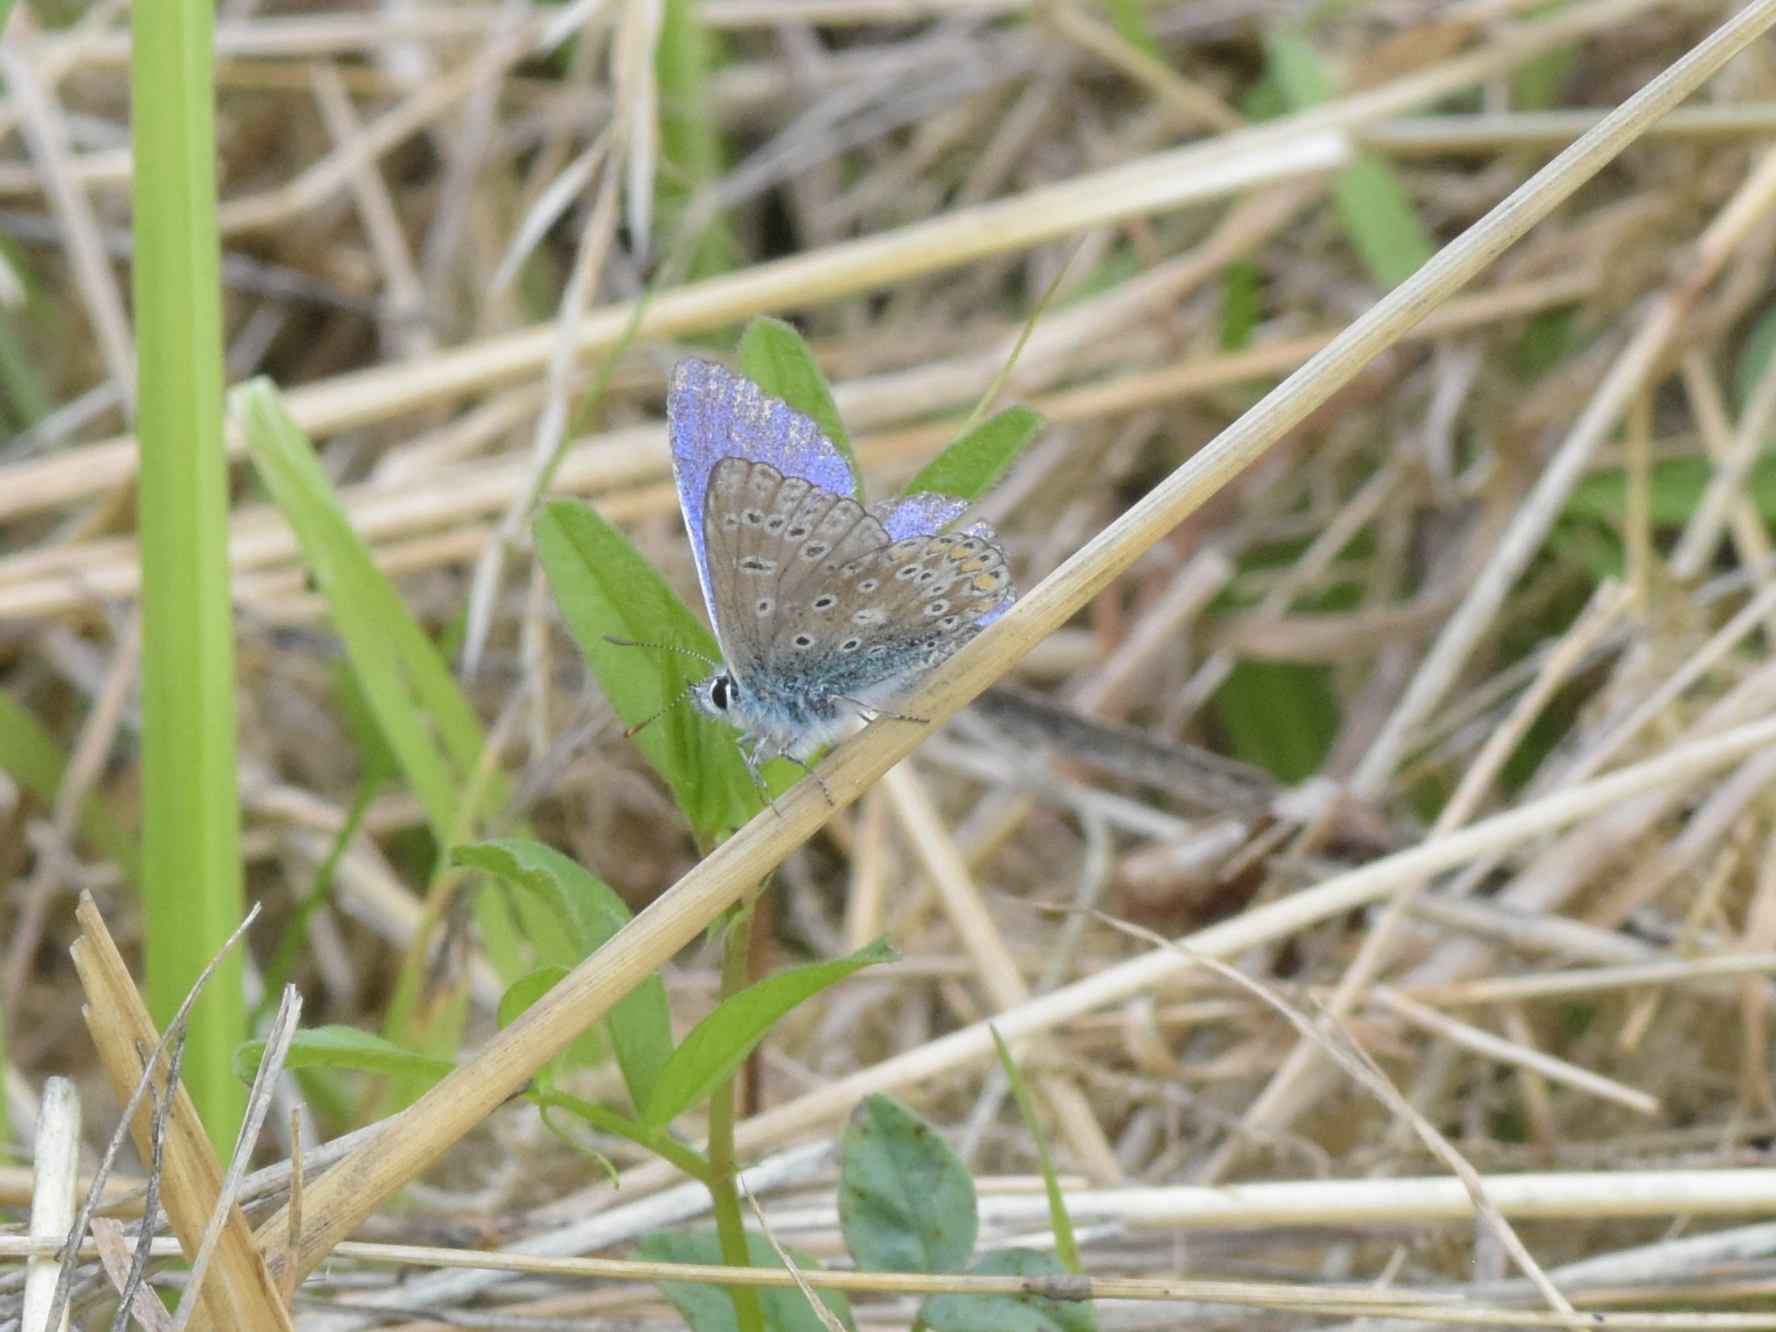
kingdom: Animalia
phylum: Arthropoda
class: Insecta
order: Lepidoptera
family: Lycaenidae
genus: Polyommatus
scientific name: Polyommatus icarus
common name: Common blue
